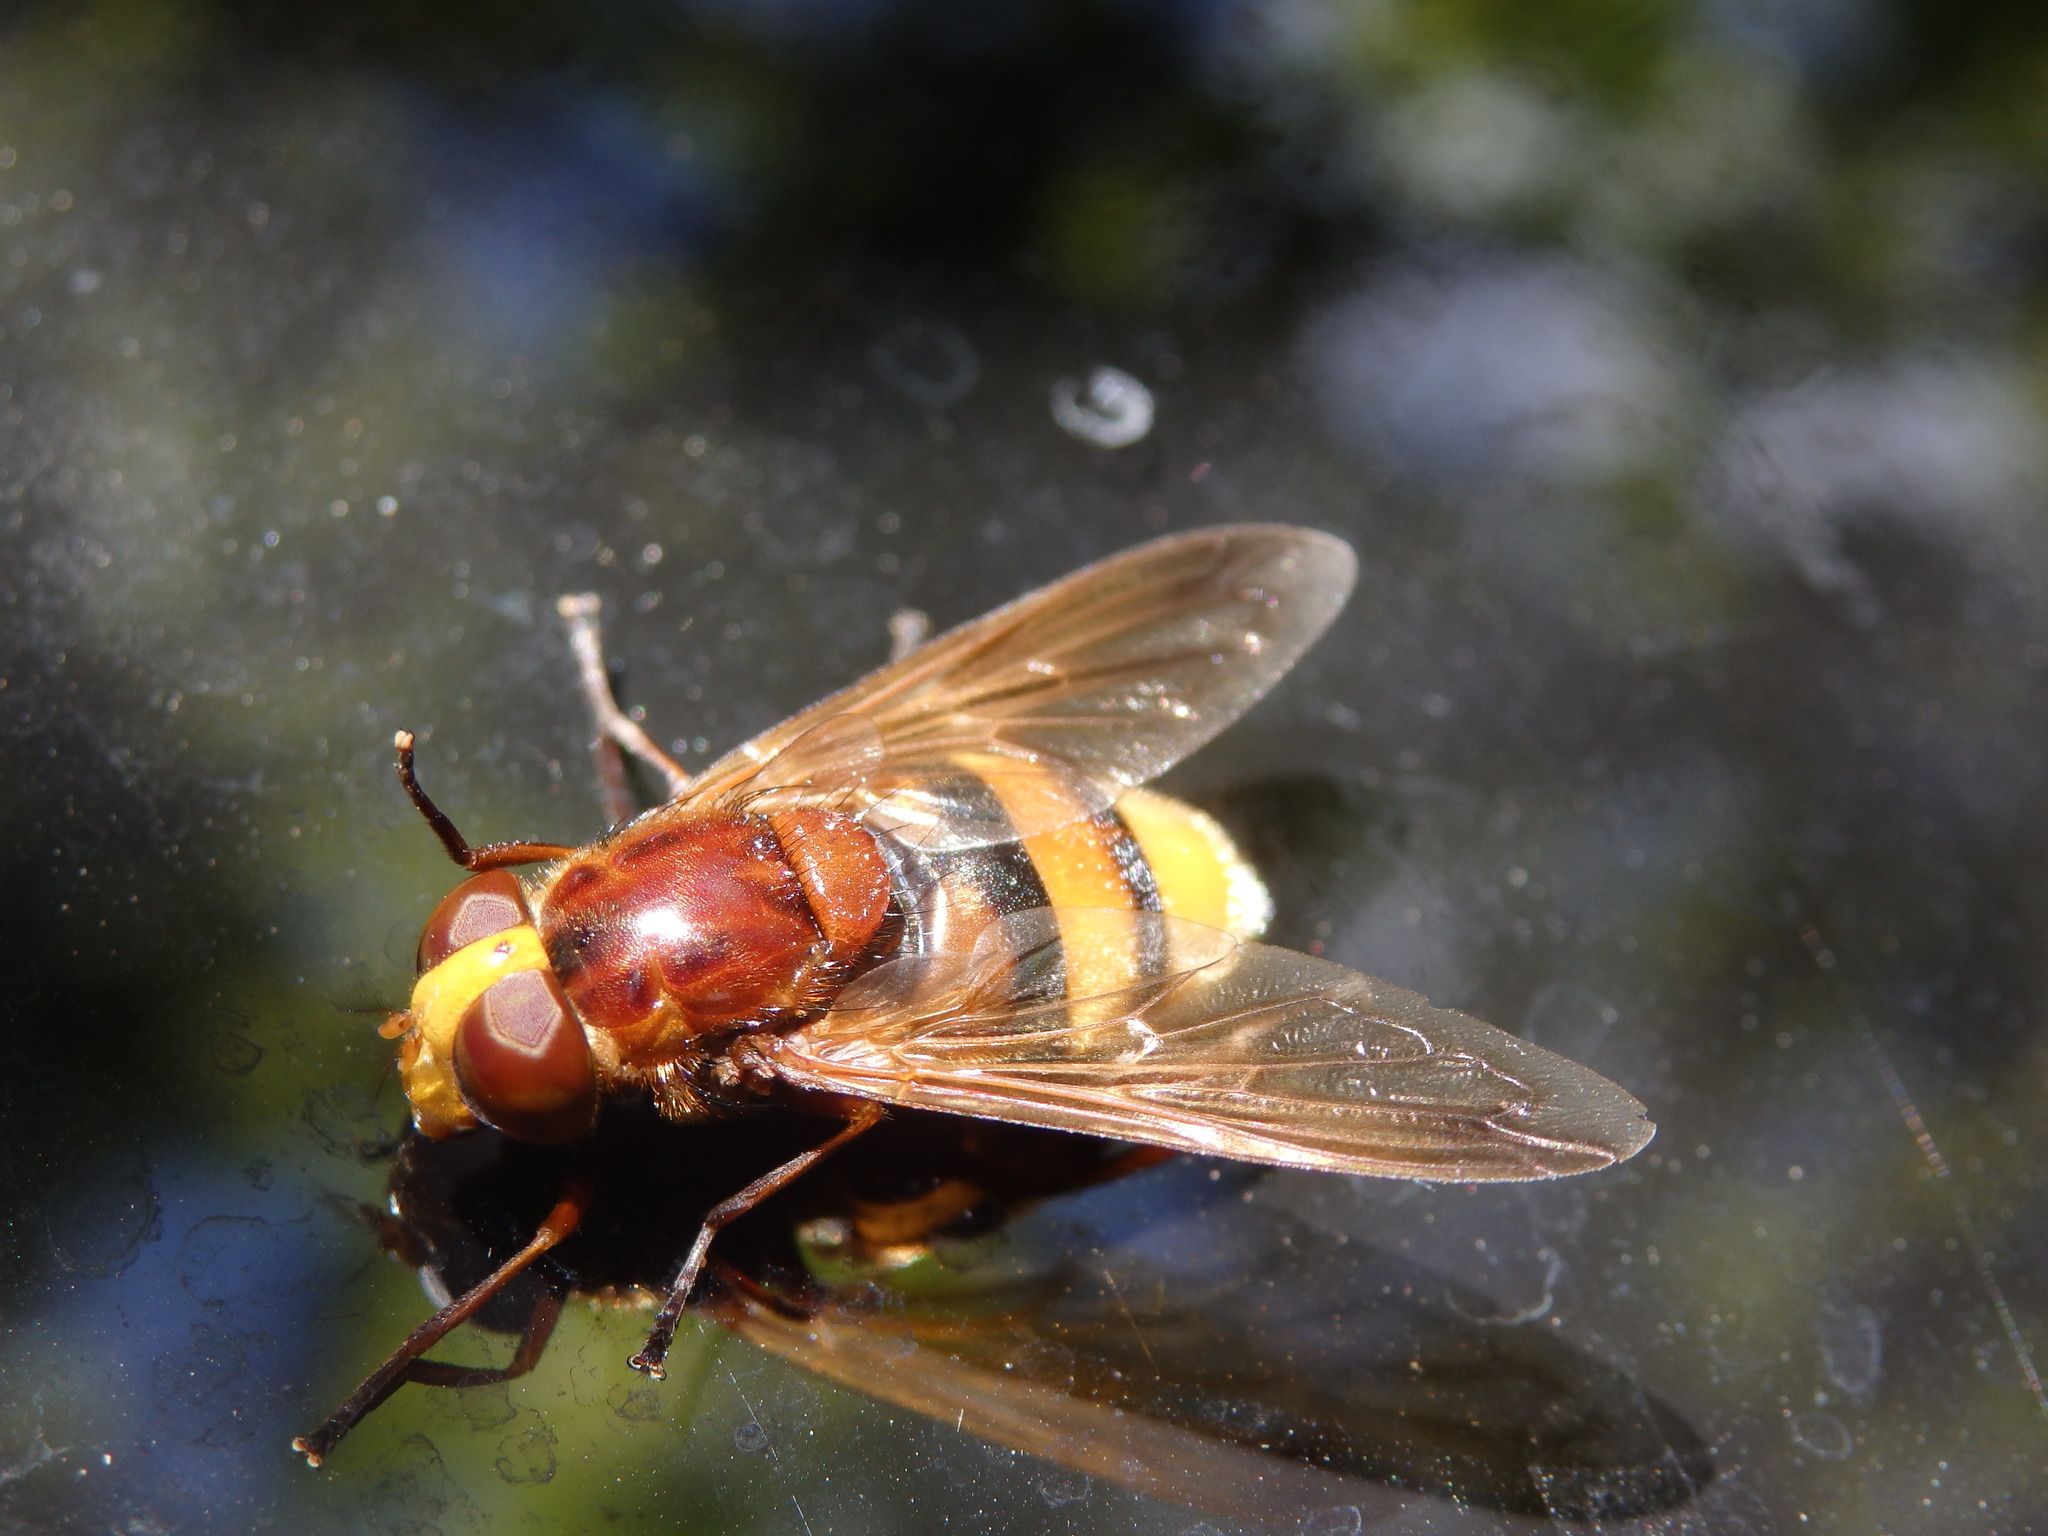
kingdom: Animalia
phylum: Arthropoda
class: Insecta
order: Diptera
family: Syrphidae
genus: Volucella
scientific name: Volucella zonaria
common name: Hornet hoverfly
